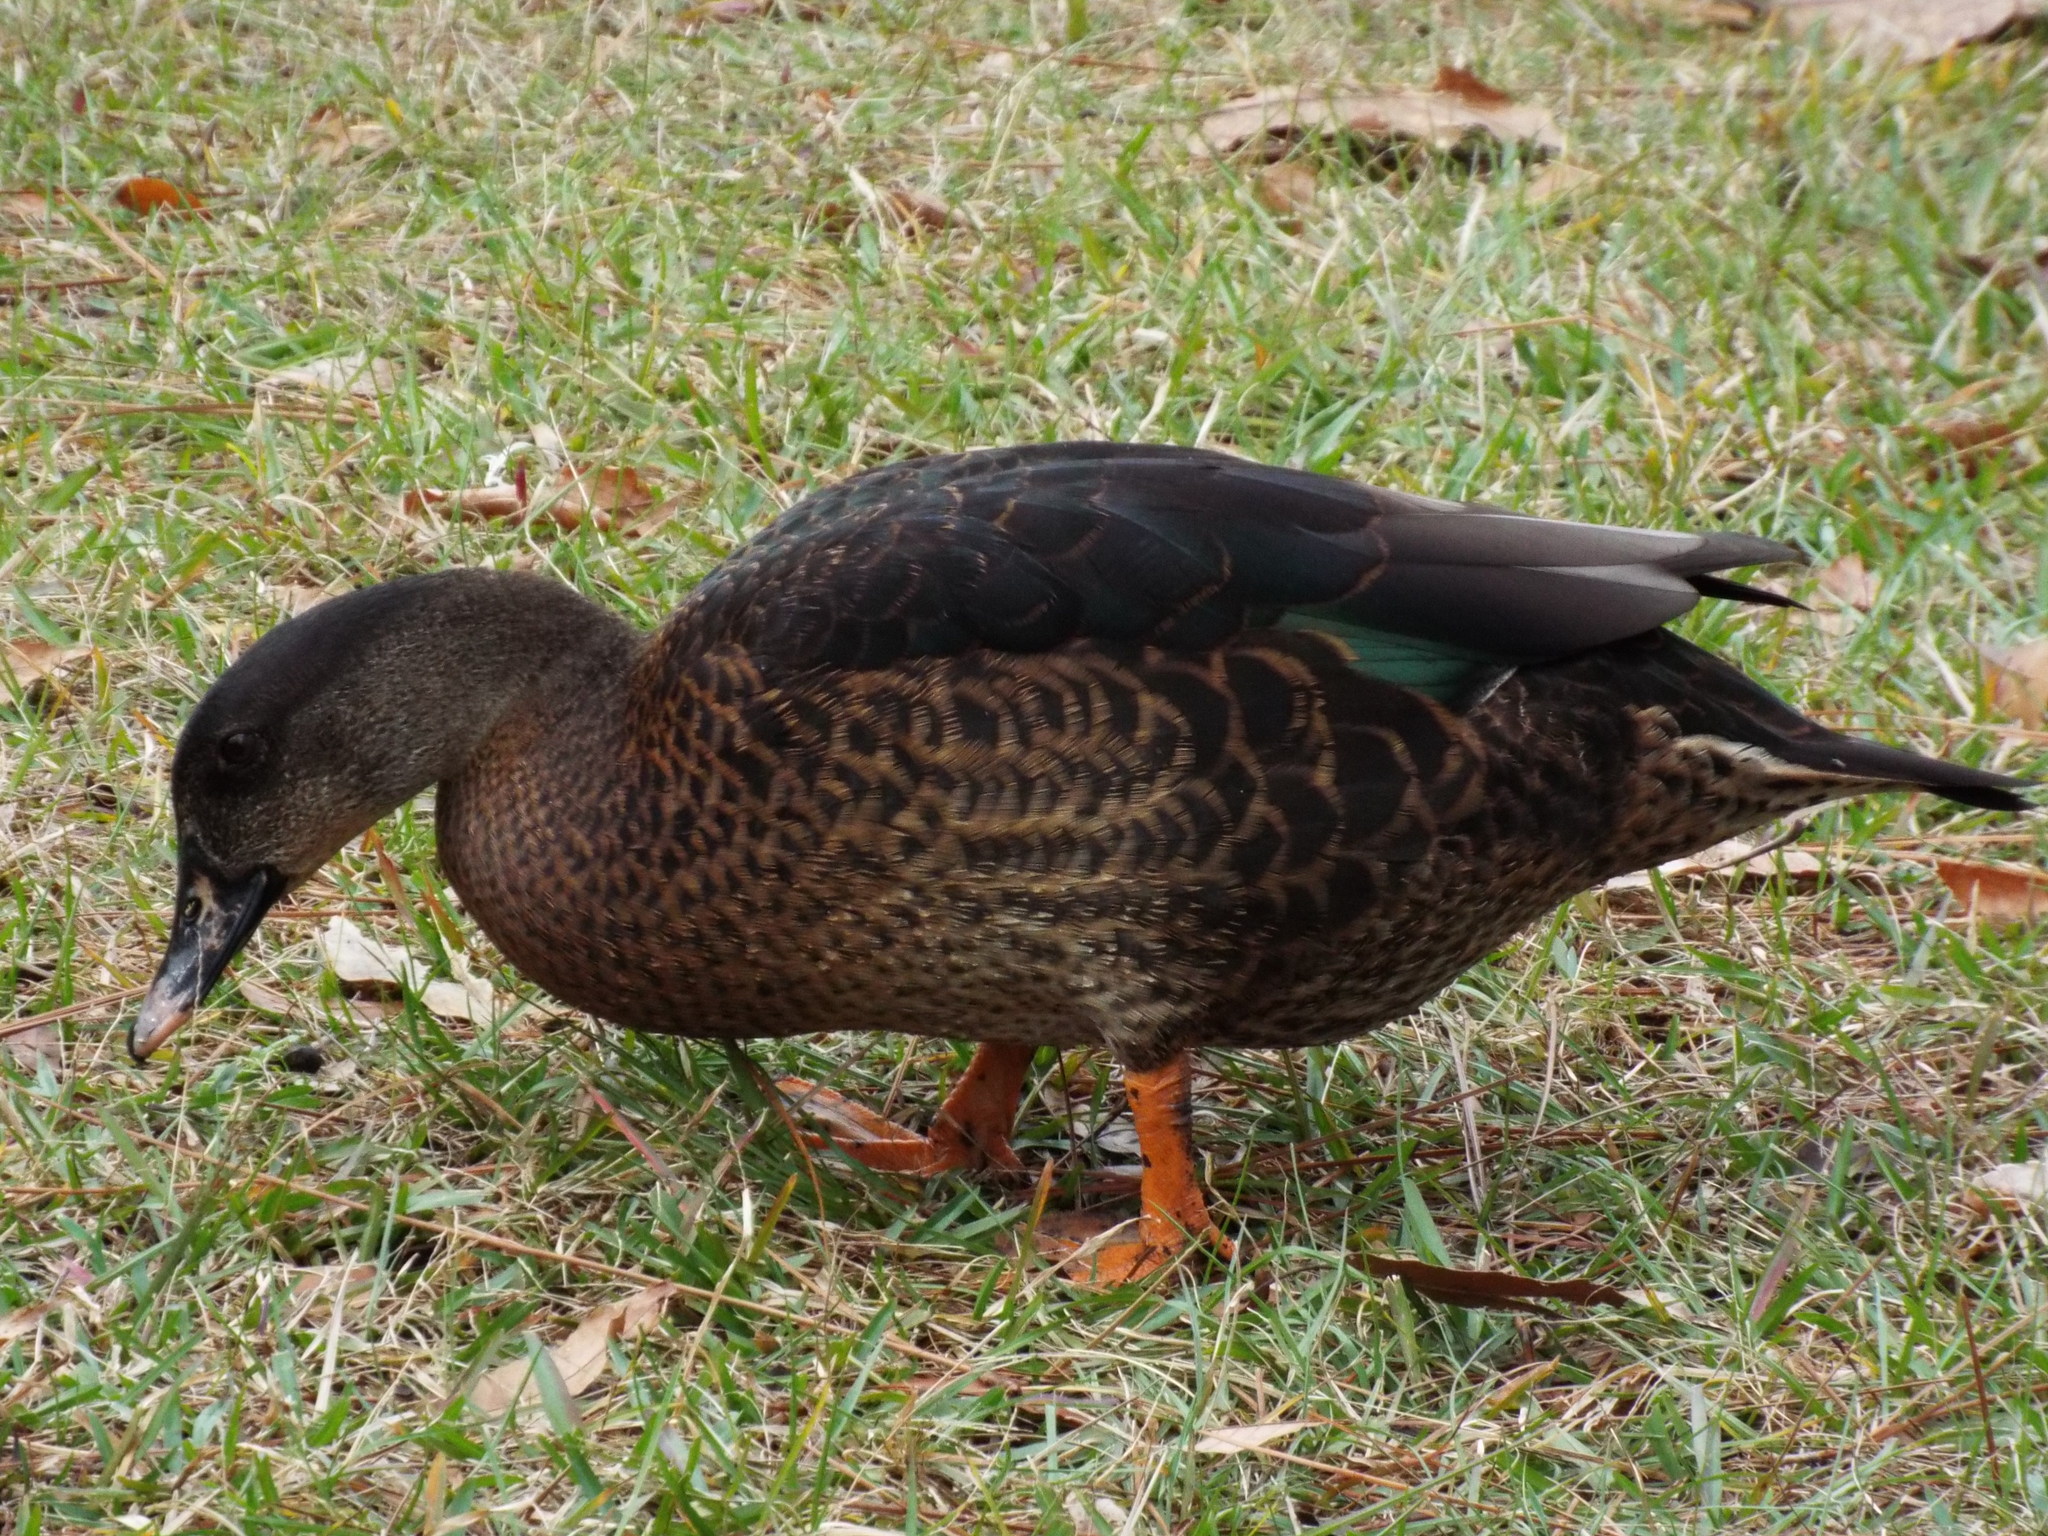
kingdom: Animalia
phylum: Chordata
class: Aves
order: Anseriformes
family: Anatidae
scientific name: Anatidae
